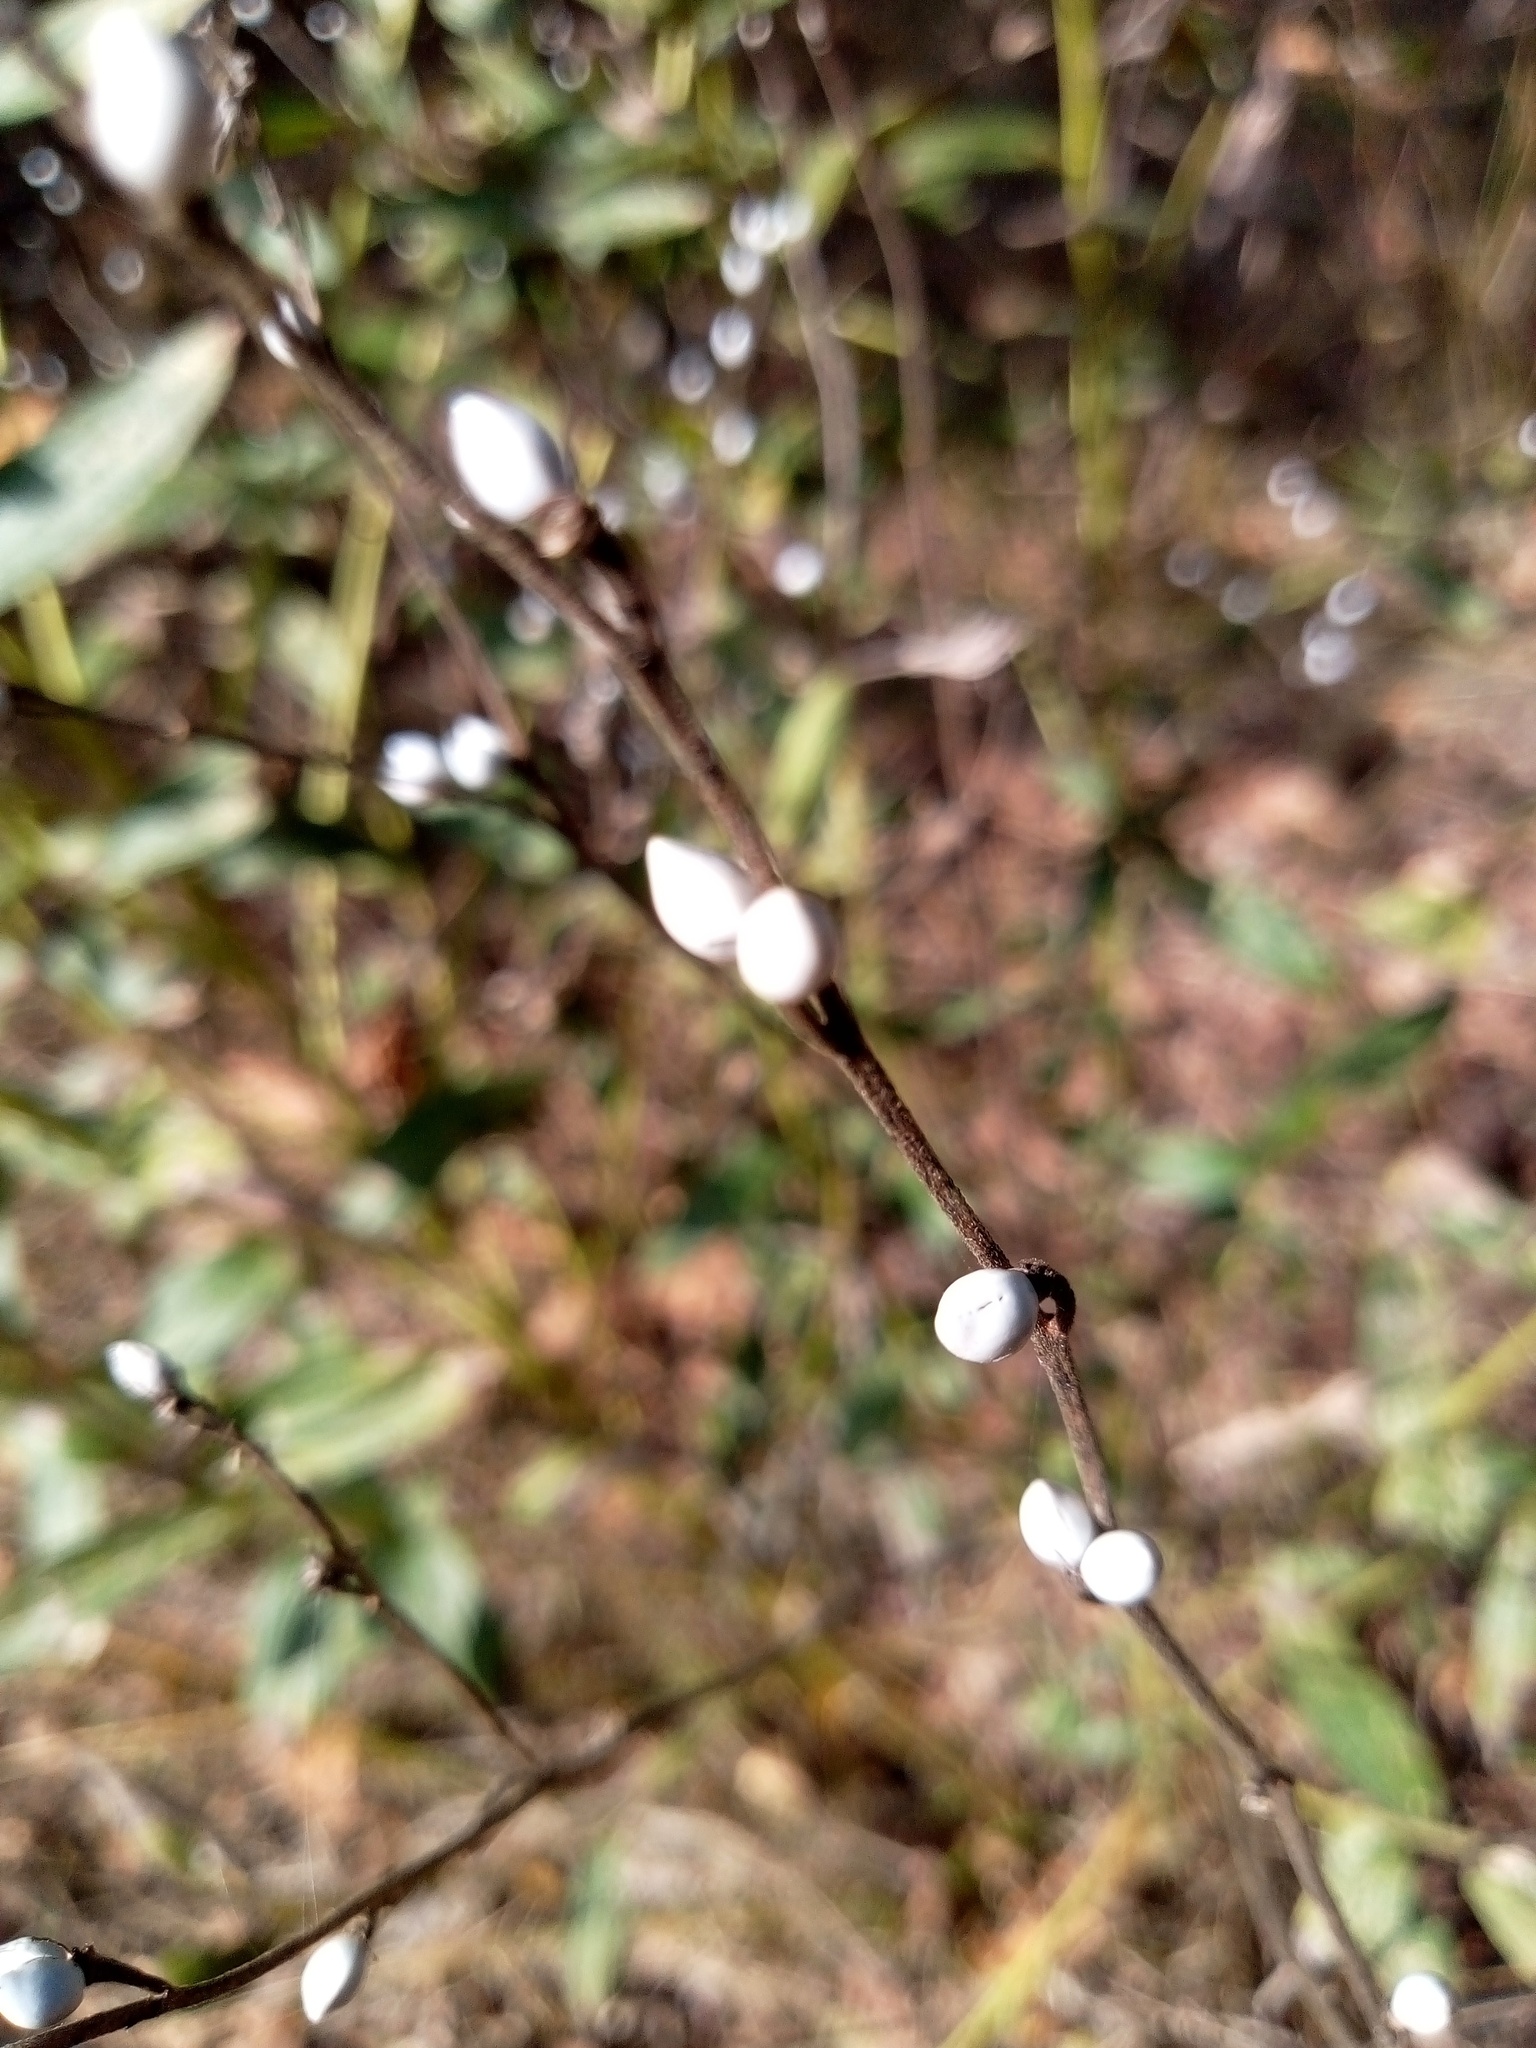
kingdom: Plantae
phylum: Tracheophyta
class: Magnoliopsida
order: Boraginales
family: Boraginaceae
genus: Lithospermum
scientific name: Lithospermum officinale
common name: Common gromwell
